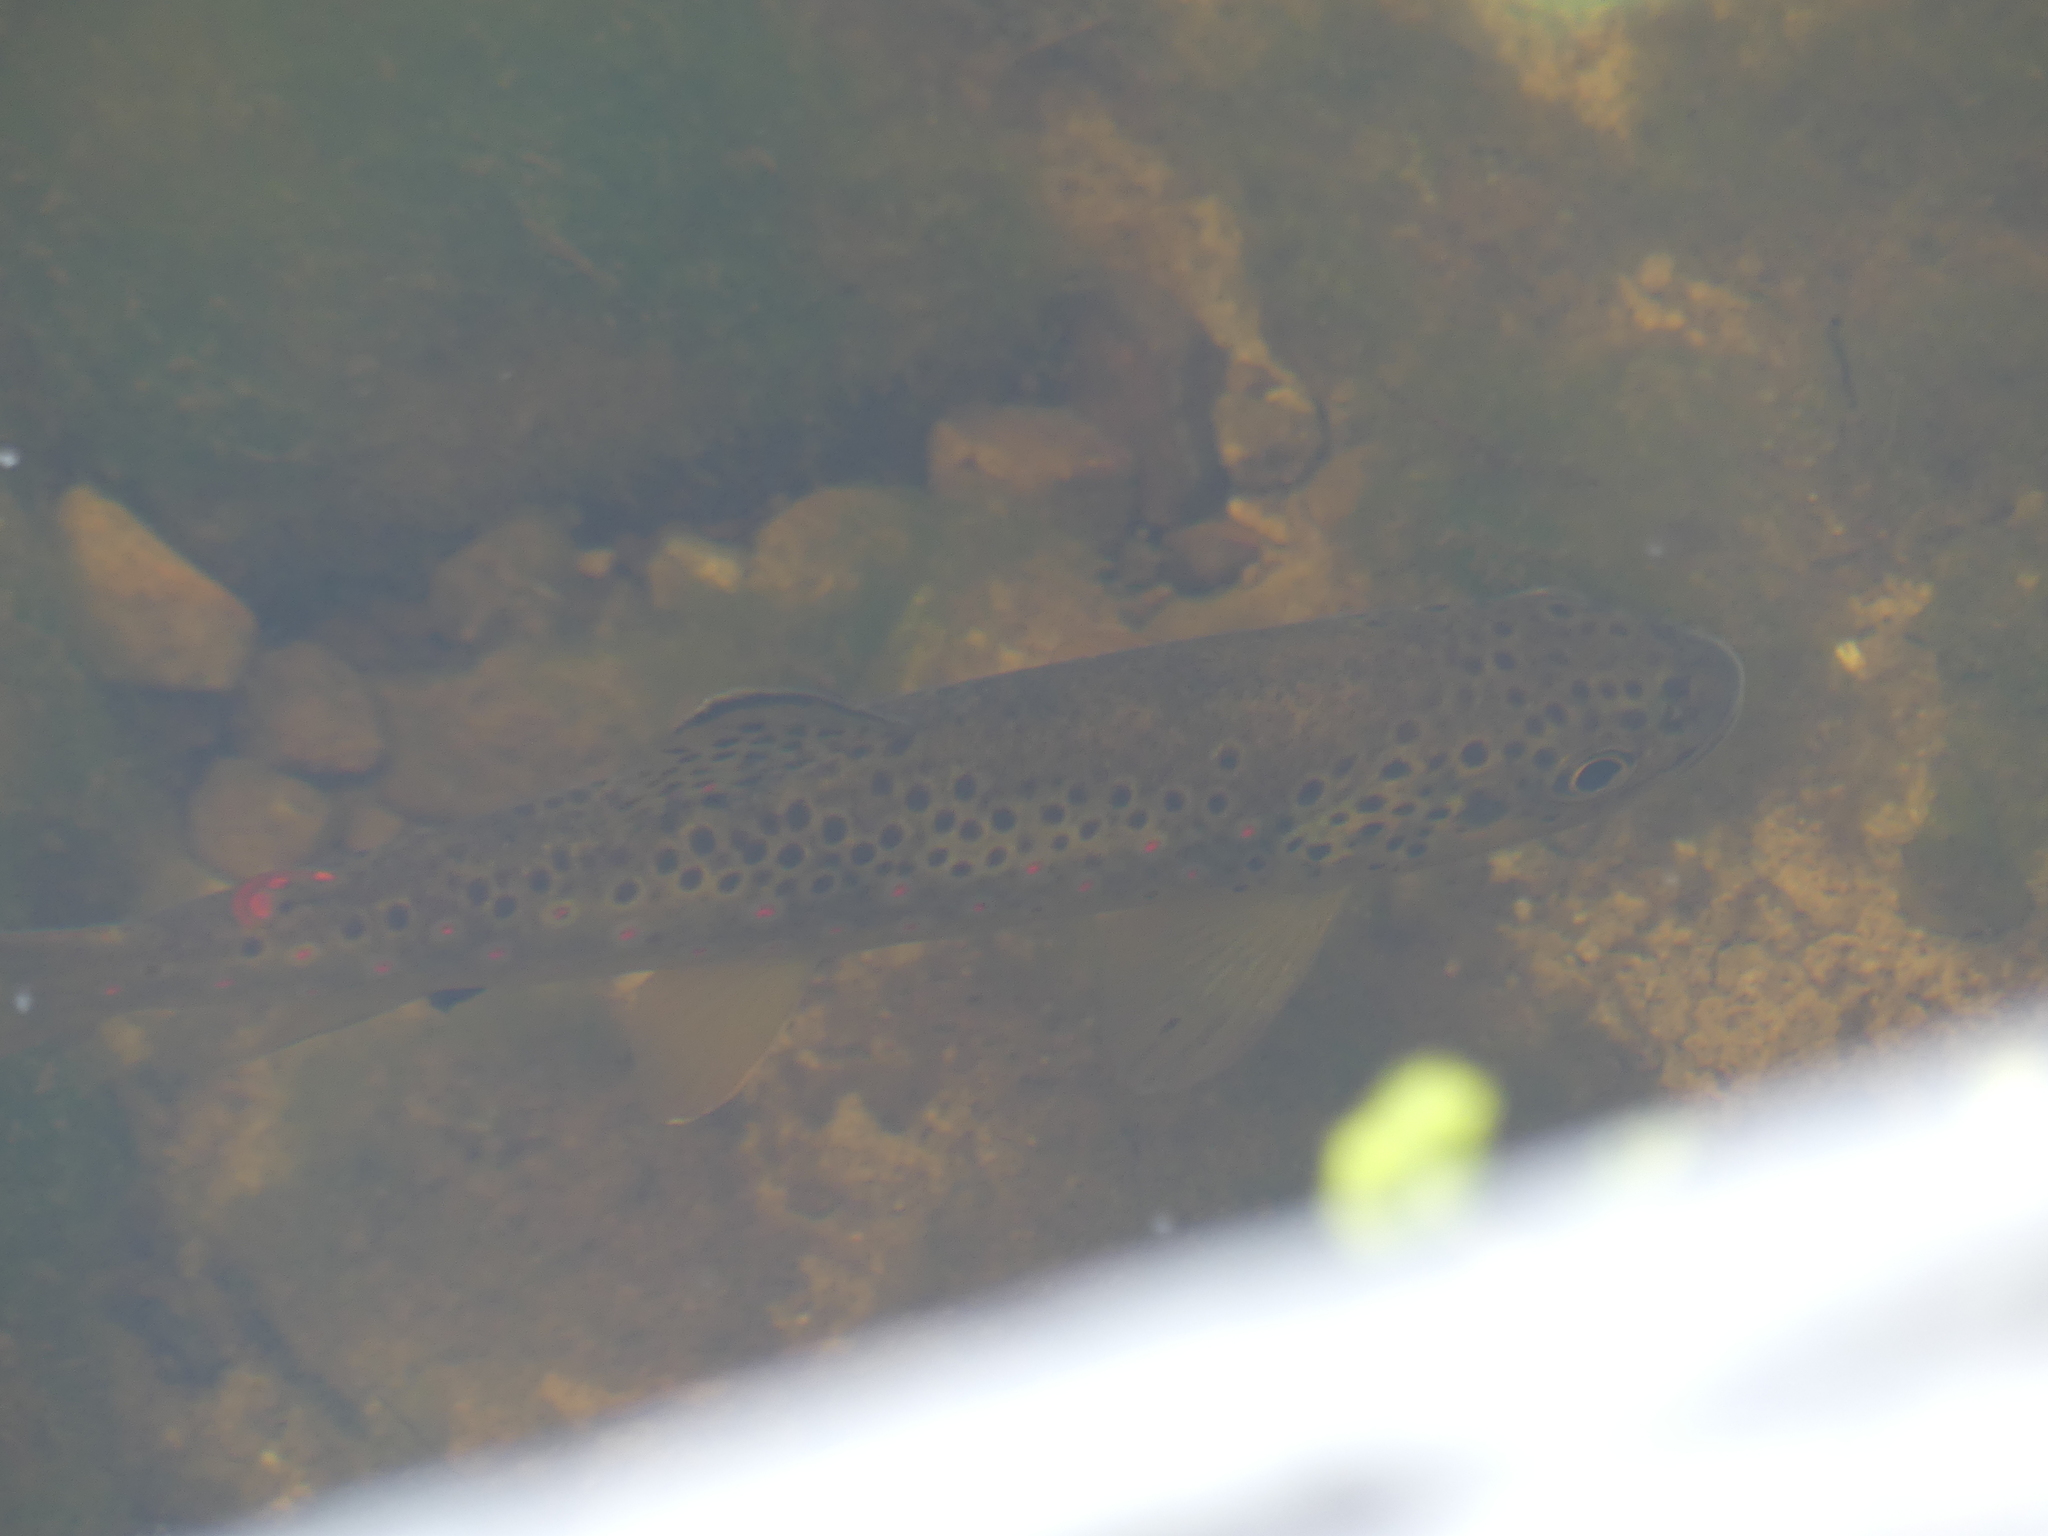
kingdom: Animalia
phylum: Chordata
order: Salmoniformes
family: Salmonidae
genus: Salmo
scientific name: Salmo trutta
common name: Brown trout
